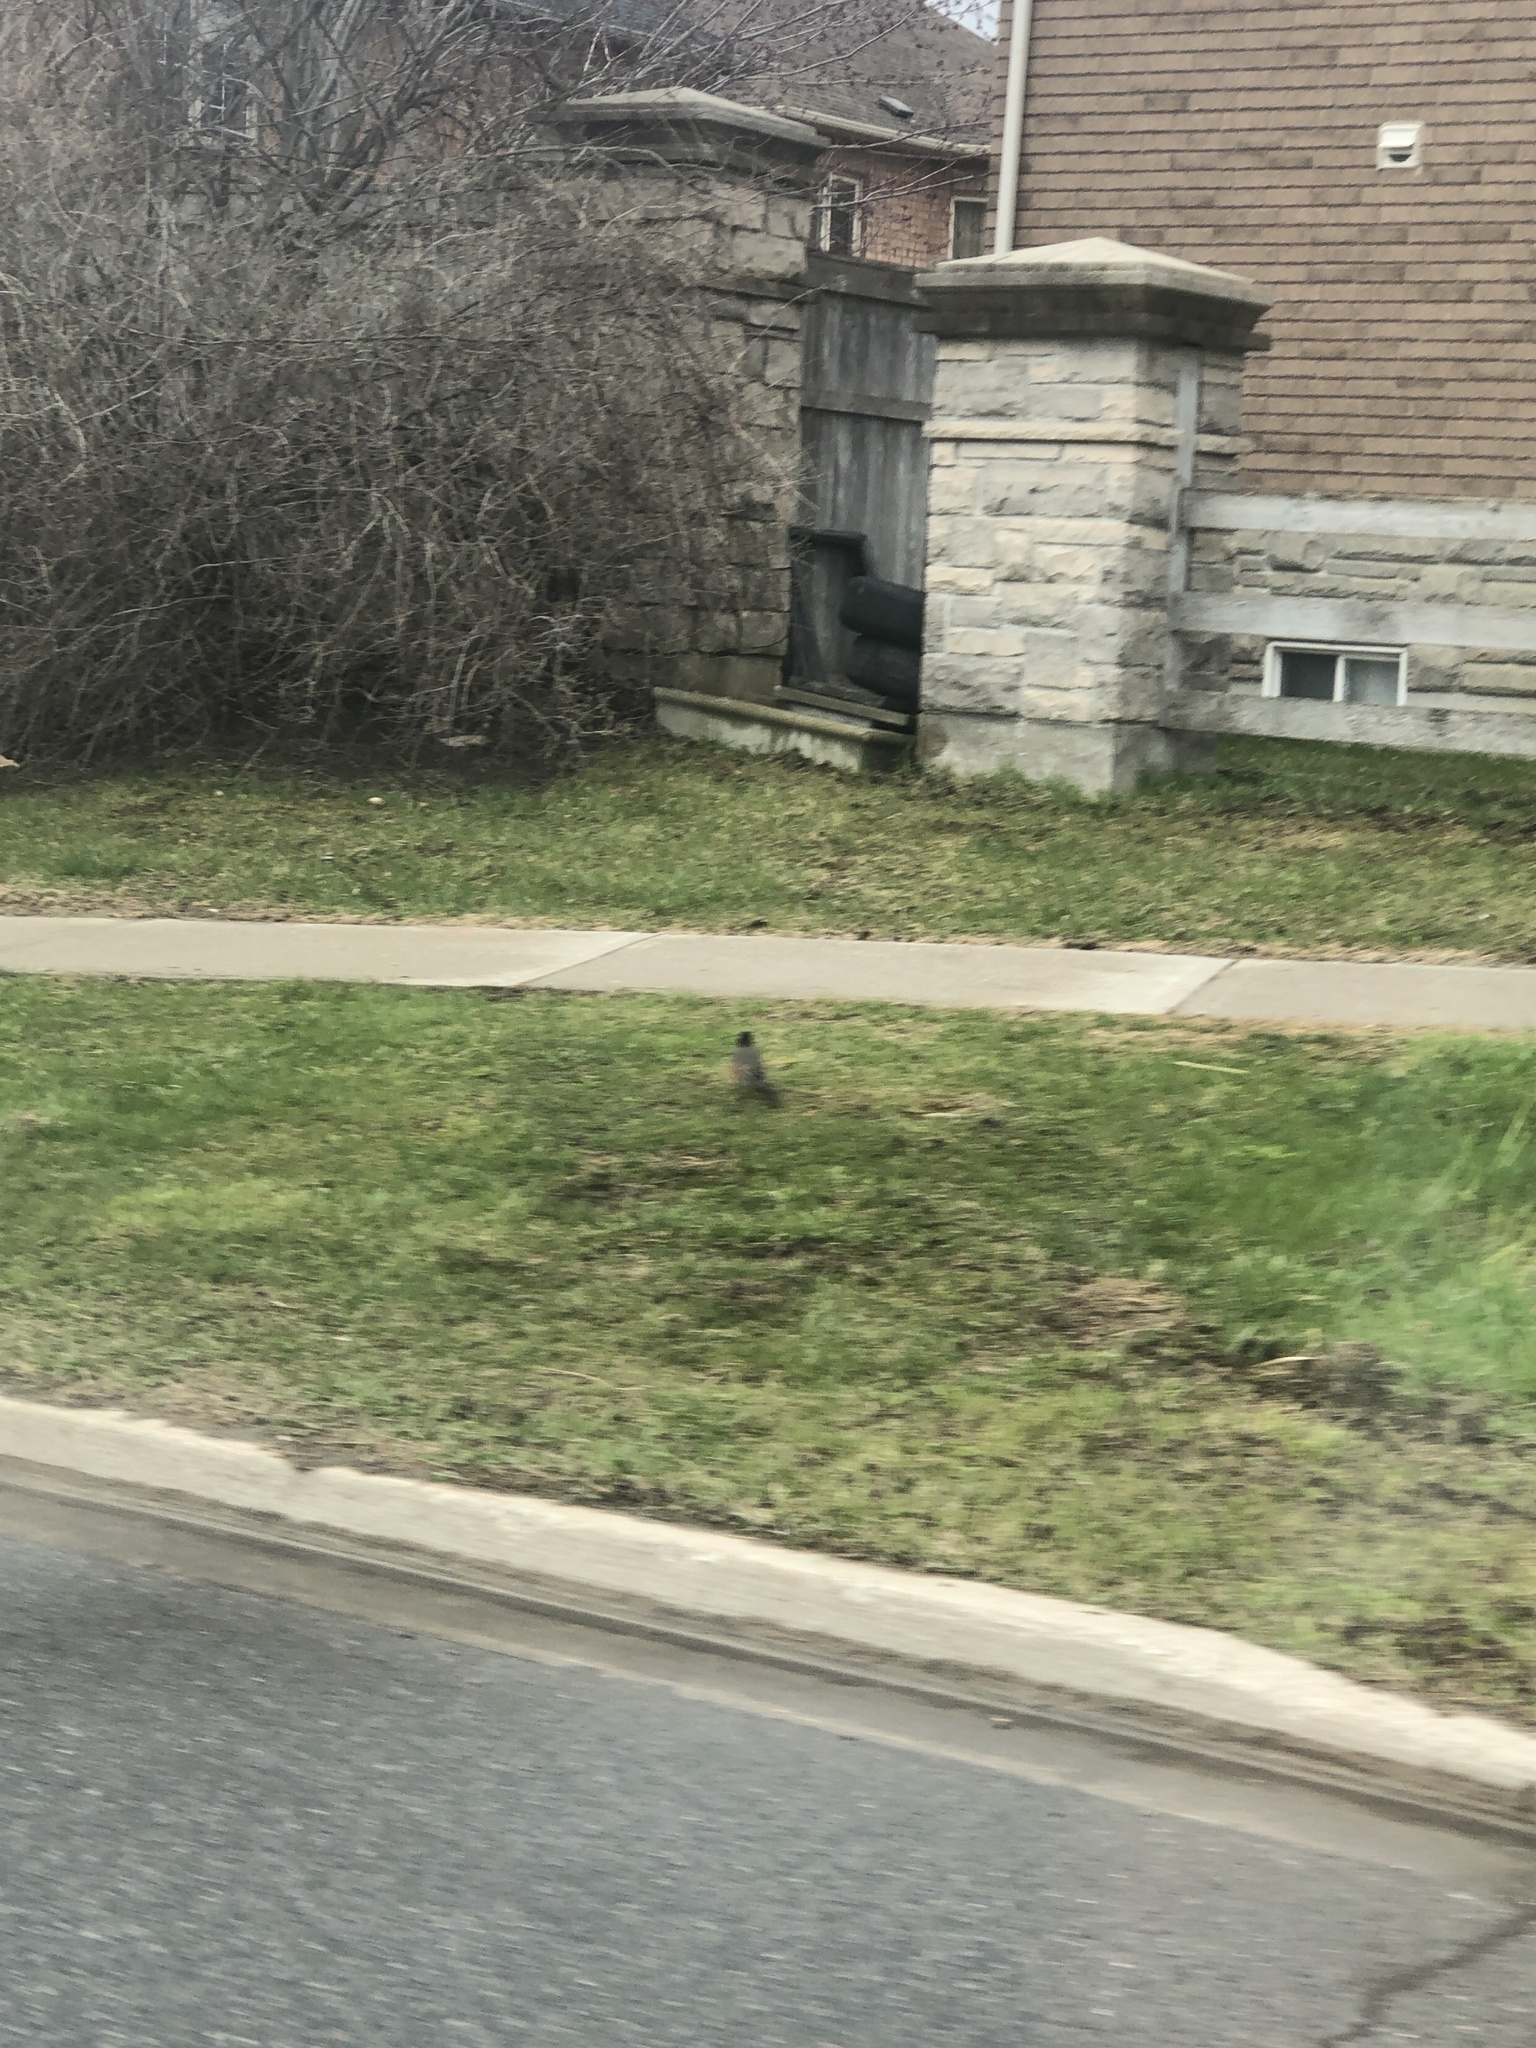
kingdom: Animalia
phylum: Chordata
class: Aves
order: Passeriformes
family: Turdidae
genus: Turdus
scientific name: Turdus migratorius
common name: American robin
